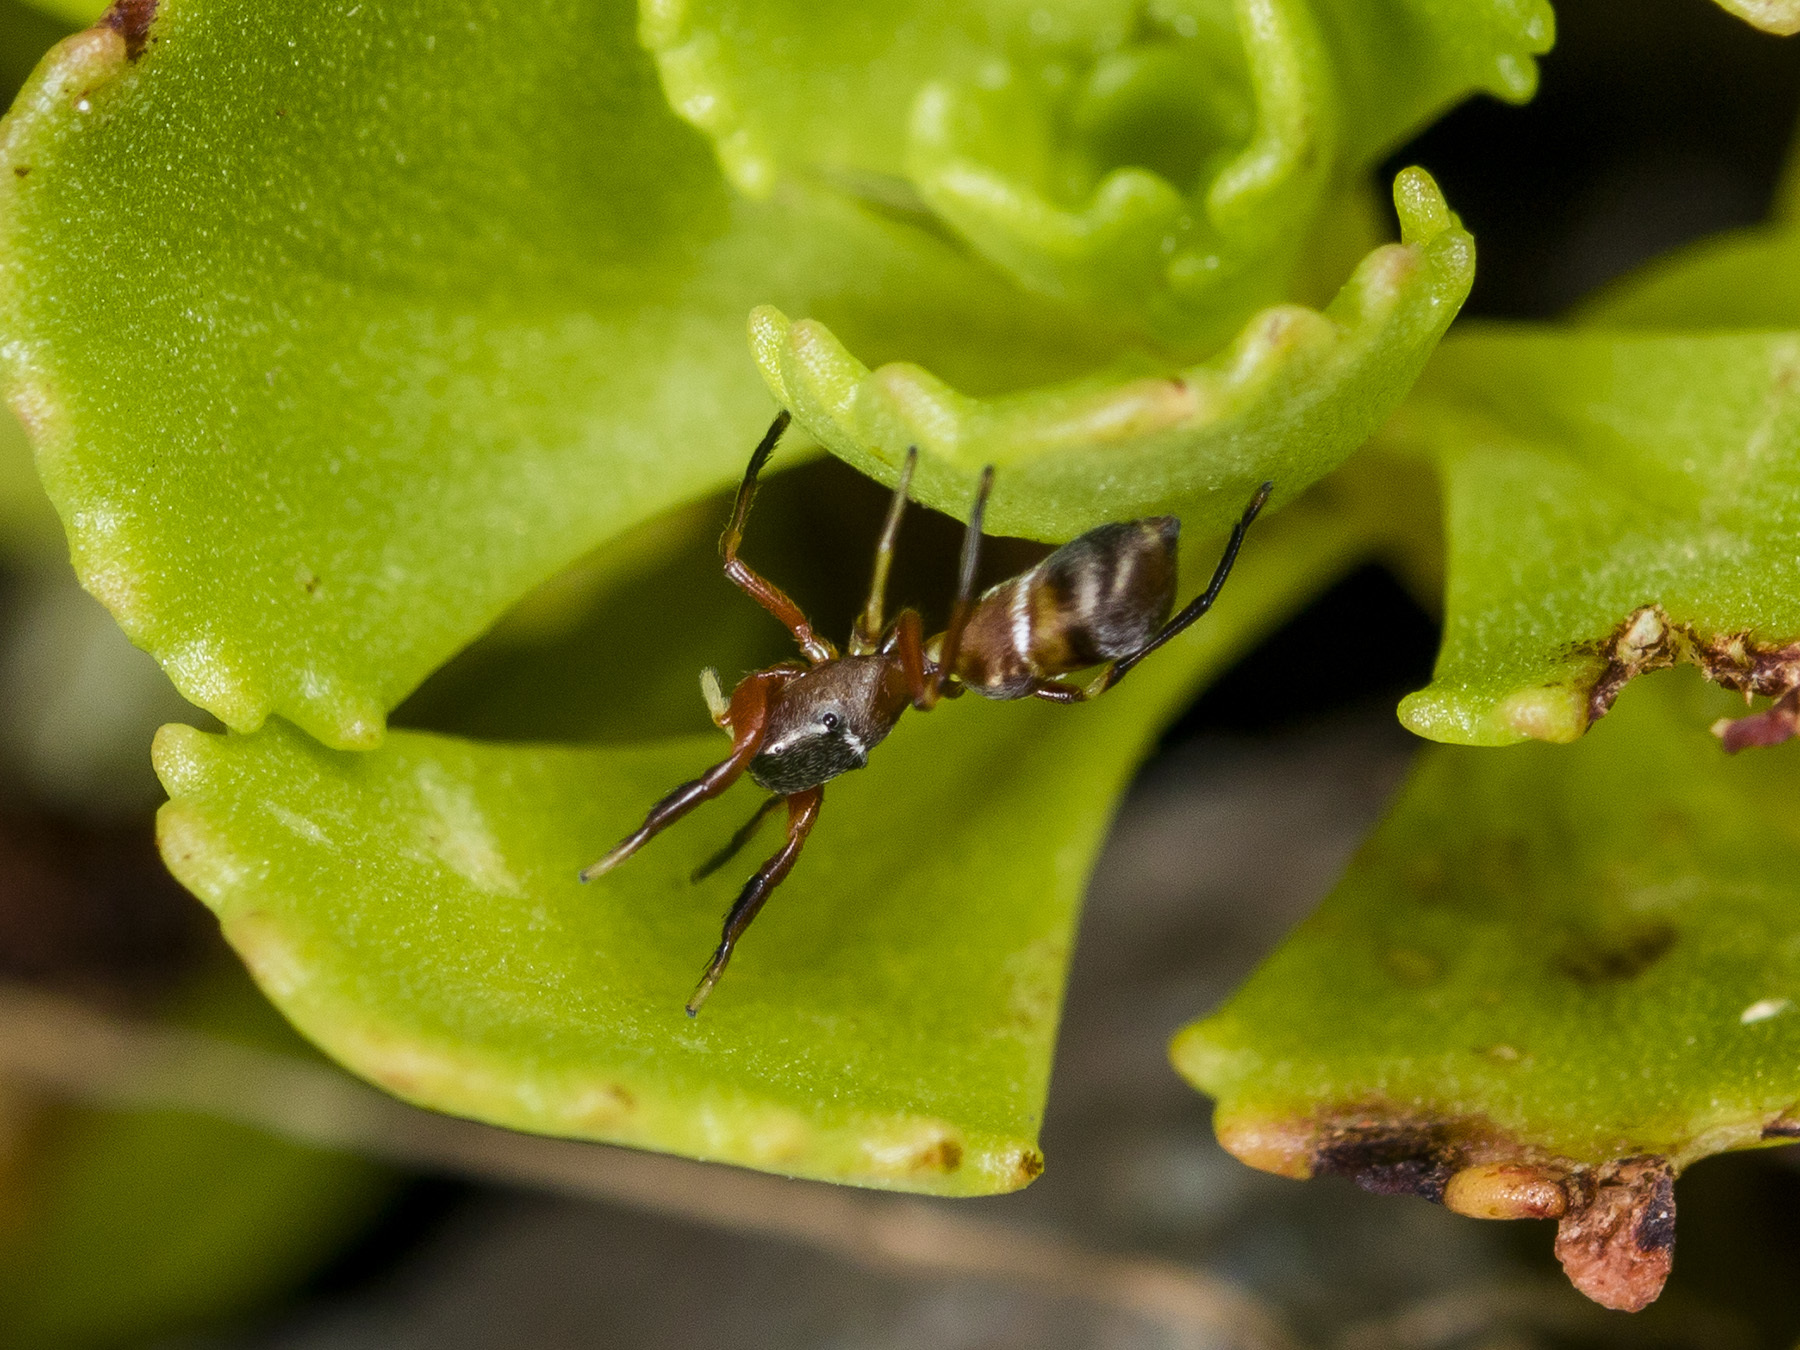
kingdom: Animalia
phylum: Arthropoda
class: Arachnida
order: Araneae
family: Salticidae
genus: Synageles
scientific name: Synageles subcingulatus
